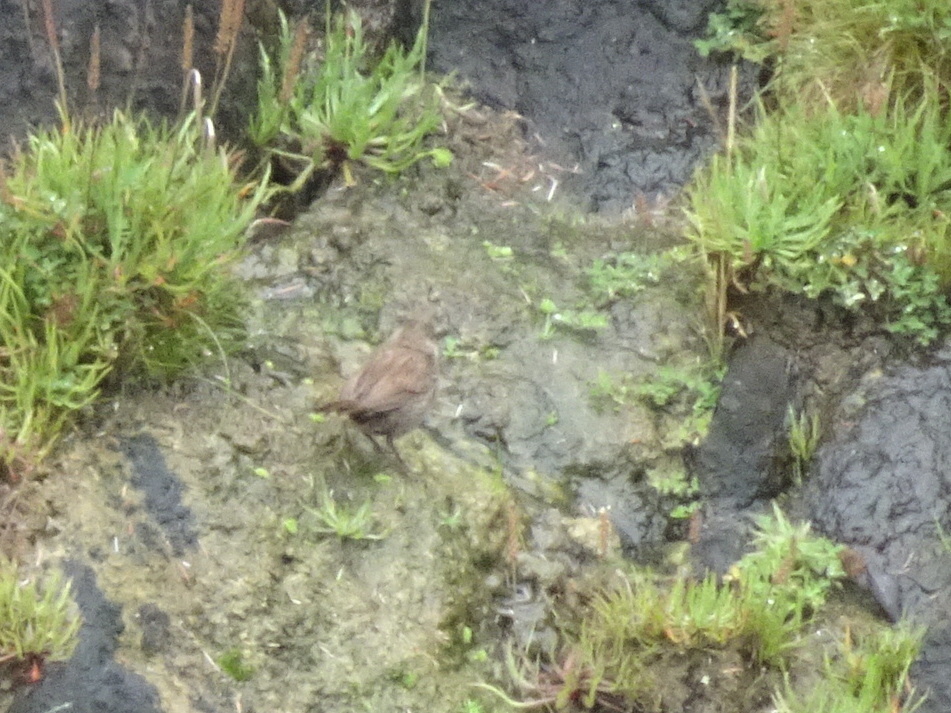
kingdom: Animalia
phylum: Chordata
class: Aves
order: Passeriformes
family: Passerellidae
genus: Melospiza
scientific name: Melospiza melodia
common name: Song sparrow
